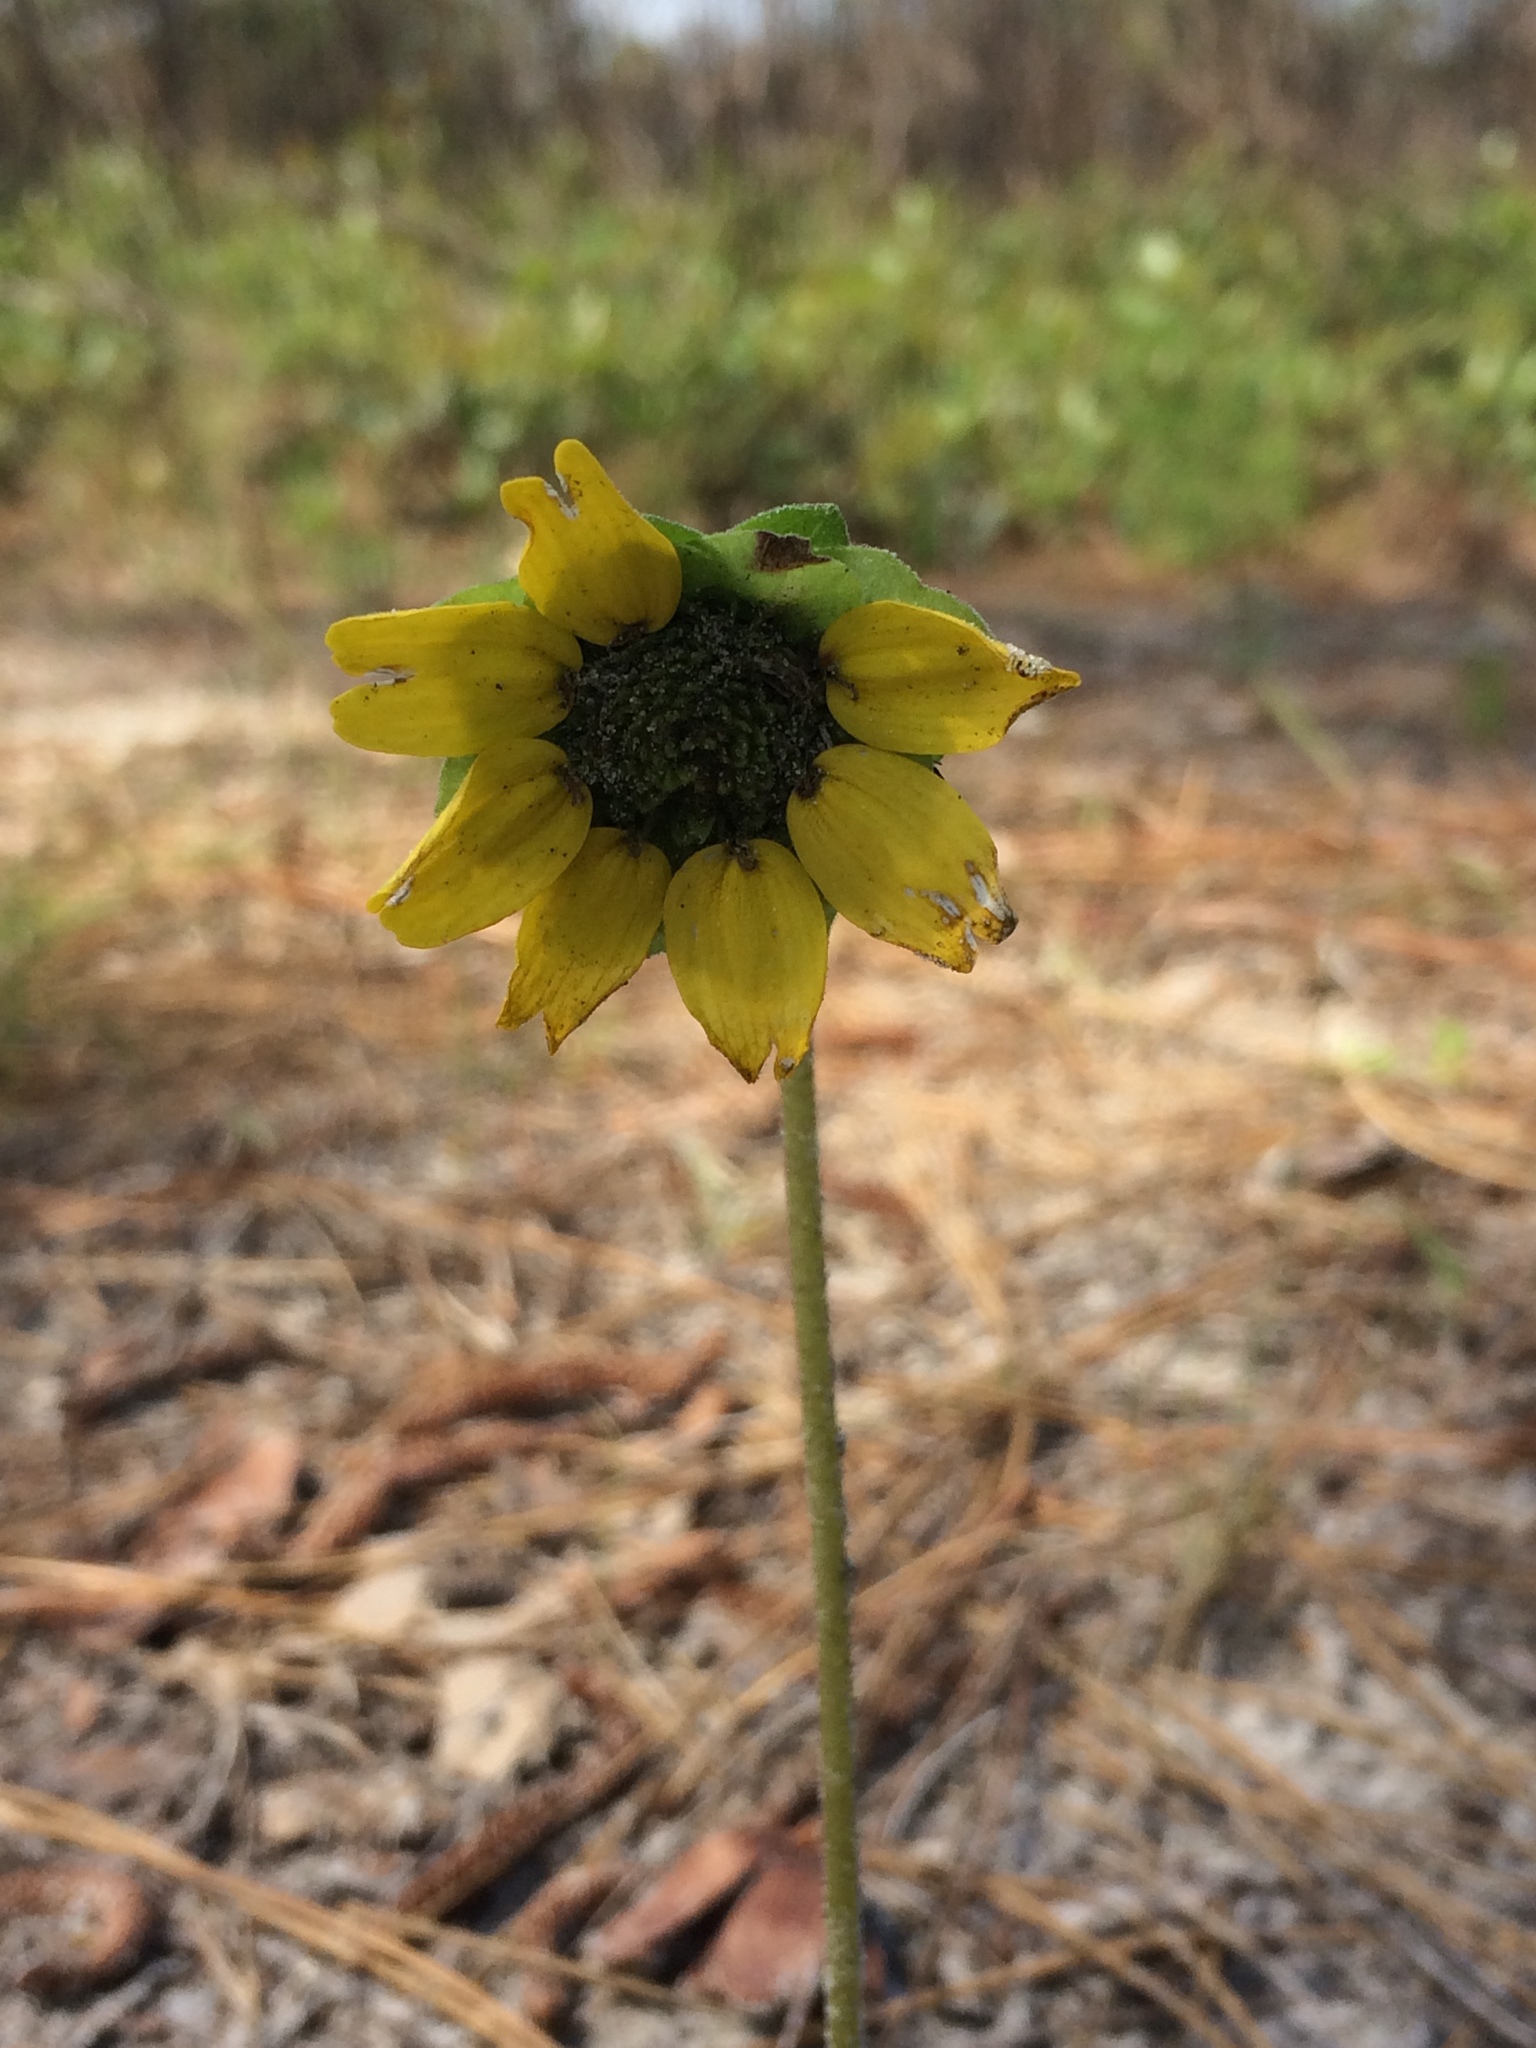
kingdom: Plantae
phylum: Tracheophyta
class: Magnoliopsida
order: Asterales
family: Asteraceae
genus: Berlandiera
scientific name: Berlandiera subacaulis
